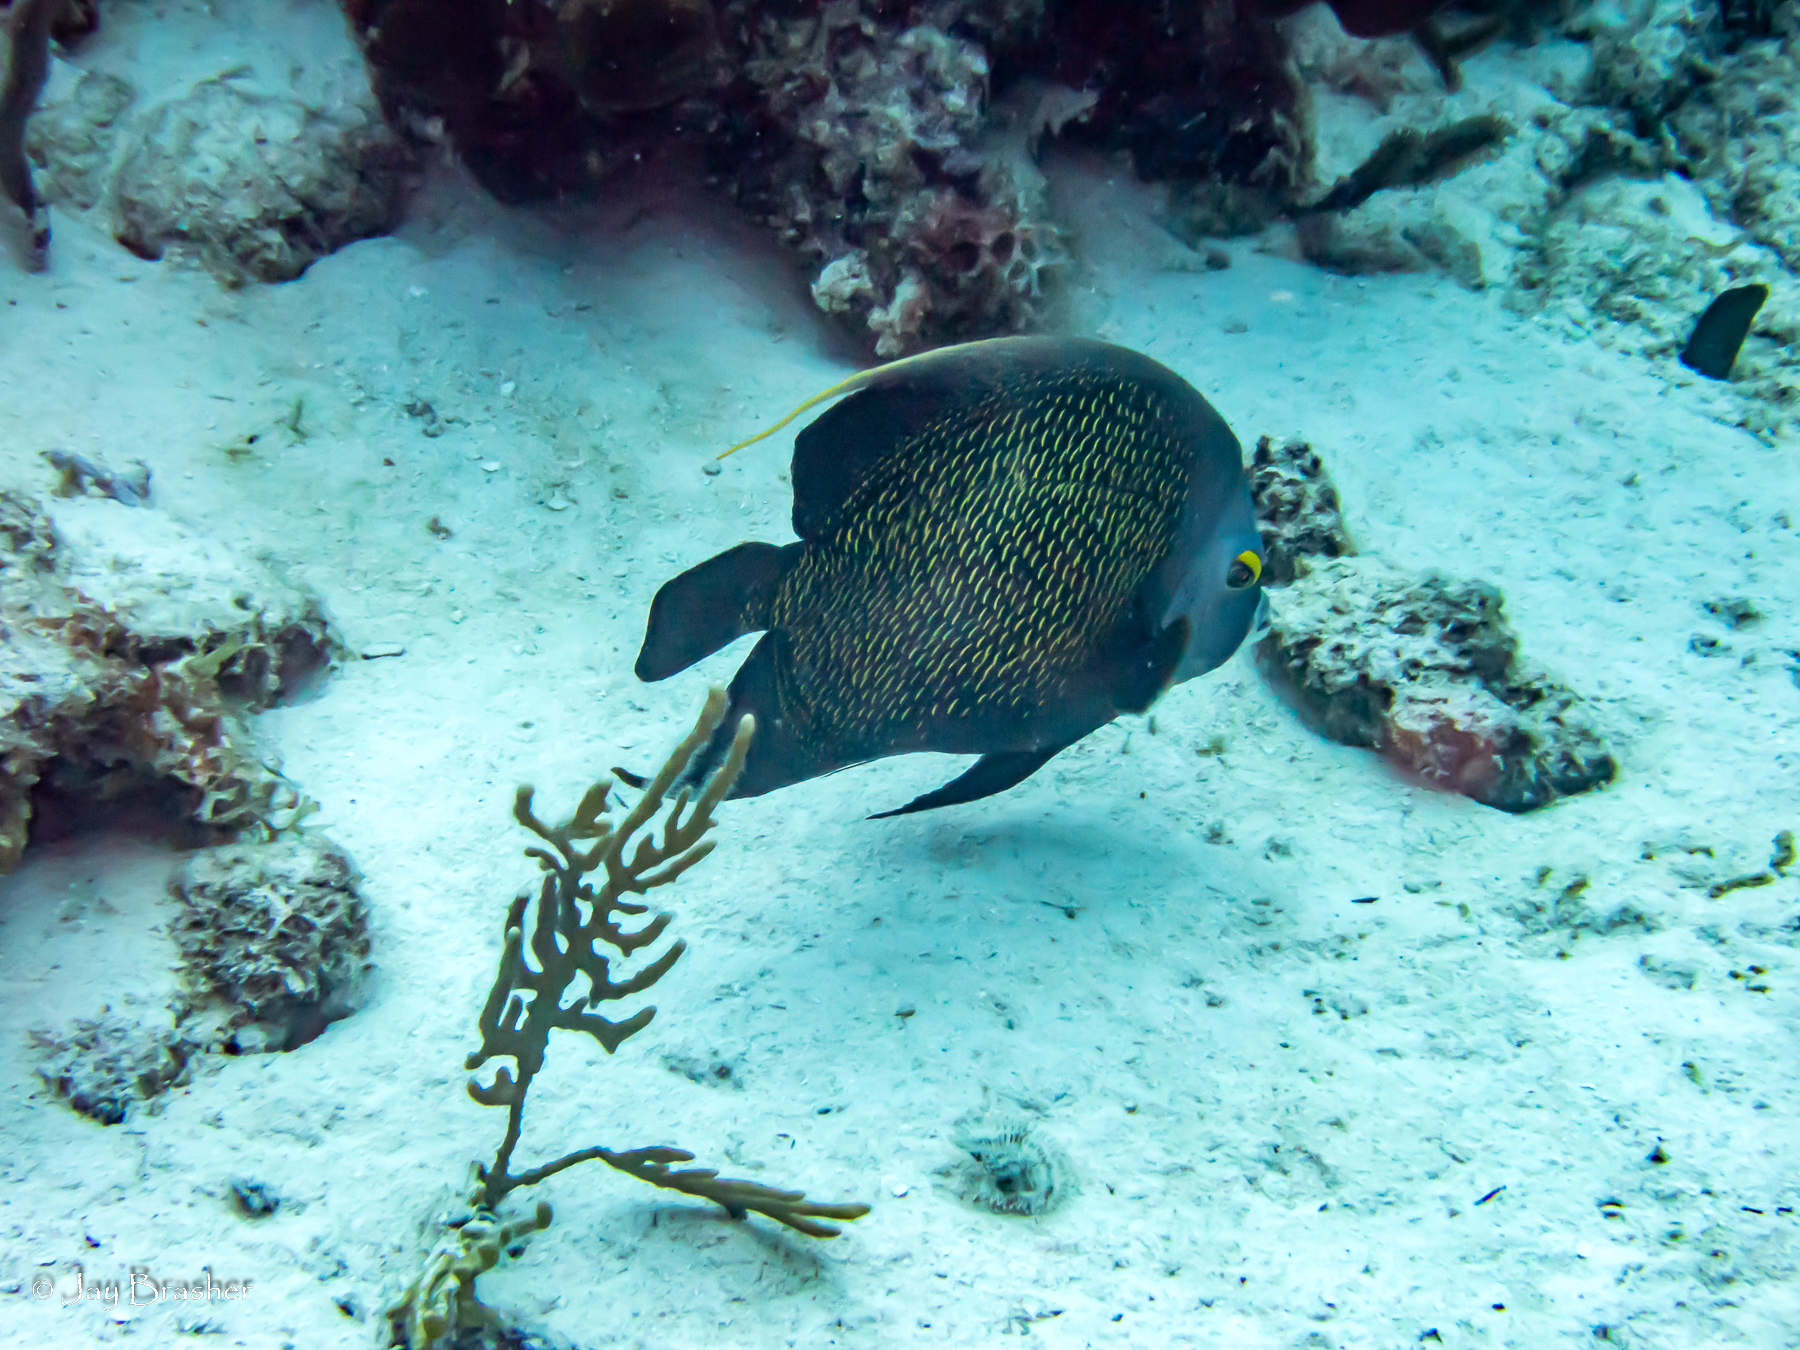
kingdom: Animalia
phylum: Chordata
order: Perciformes
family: Pomacanthidae
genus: Pomacanthus
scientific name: Pomacanthus paru
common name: French angelfish
